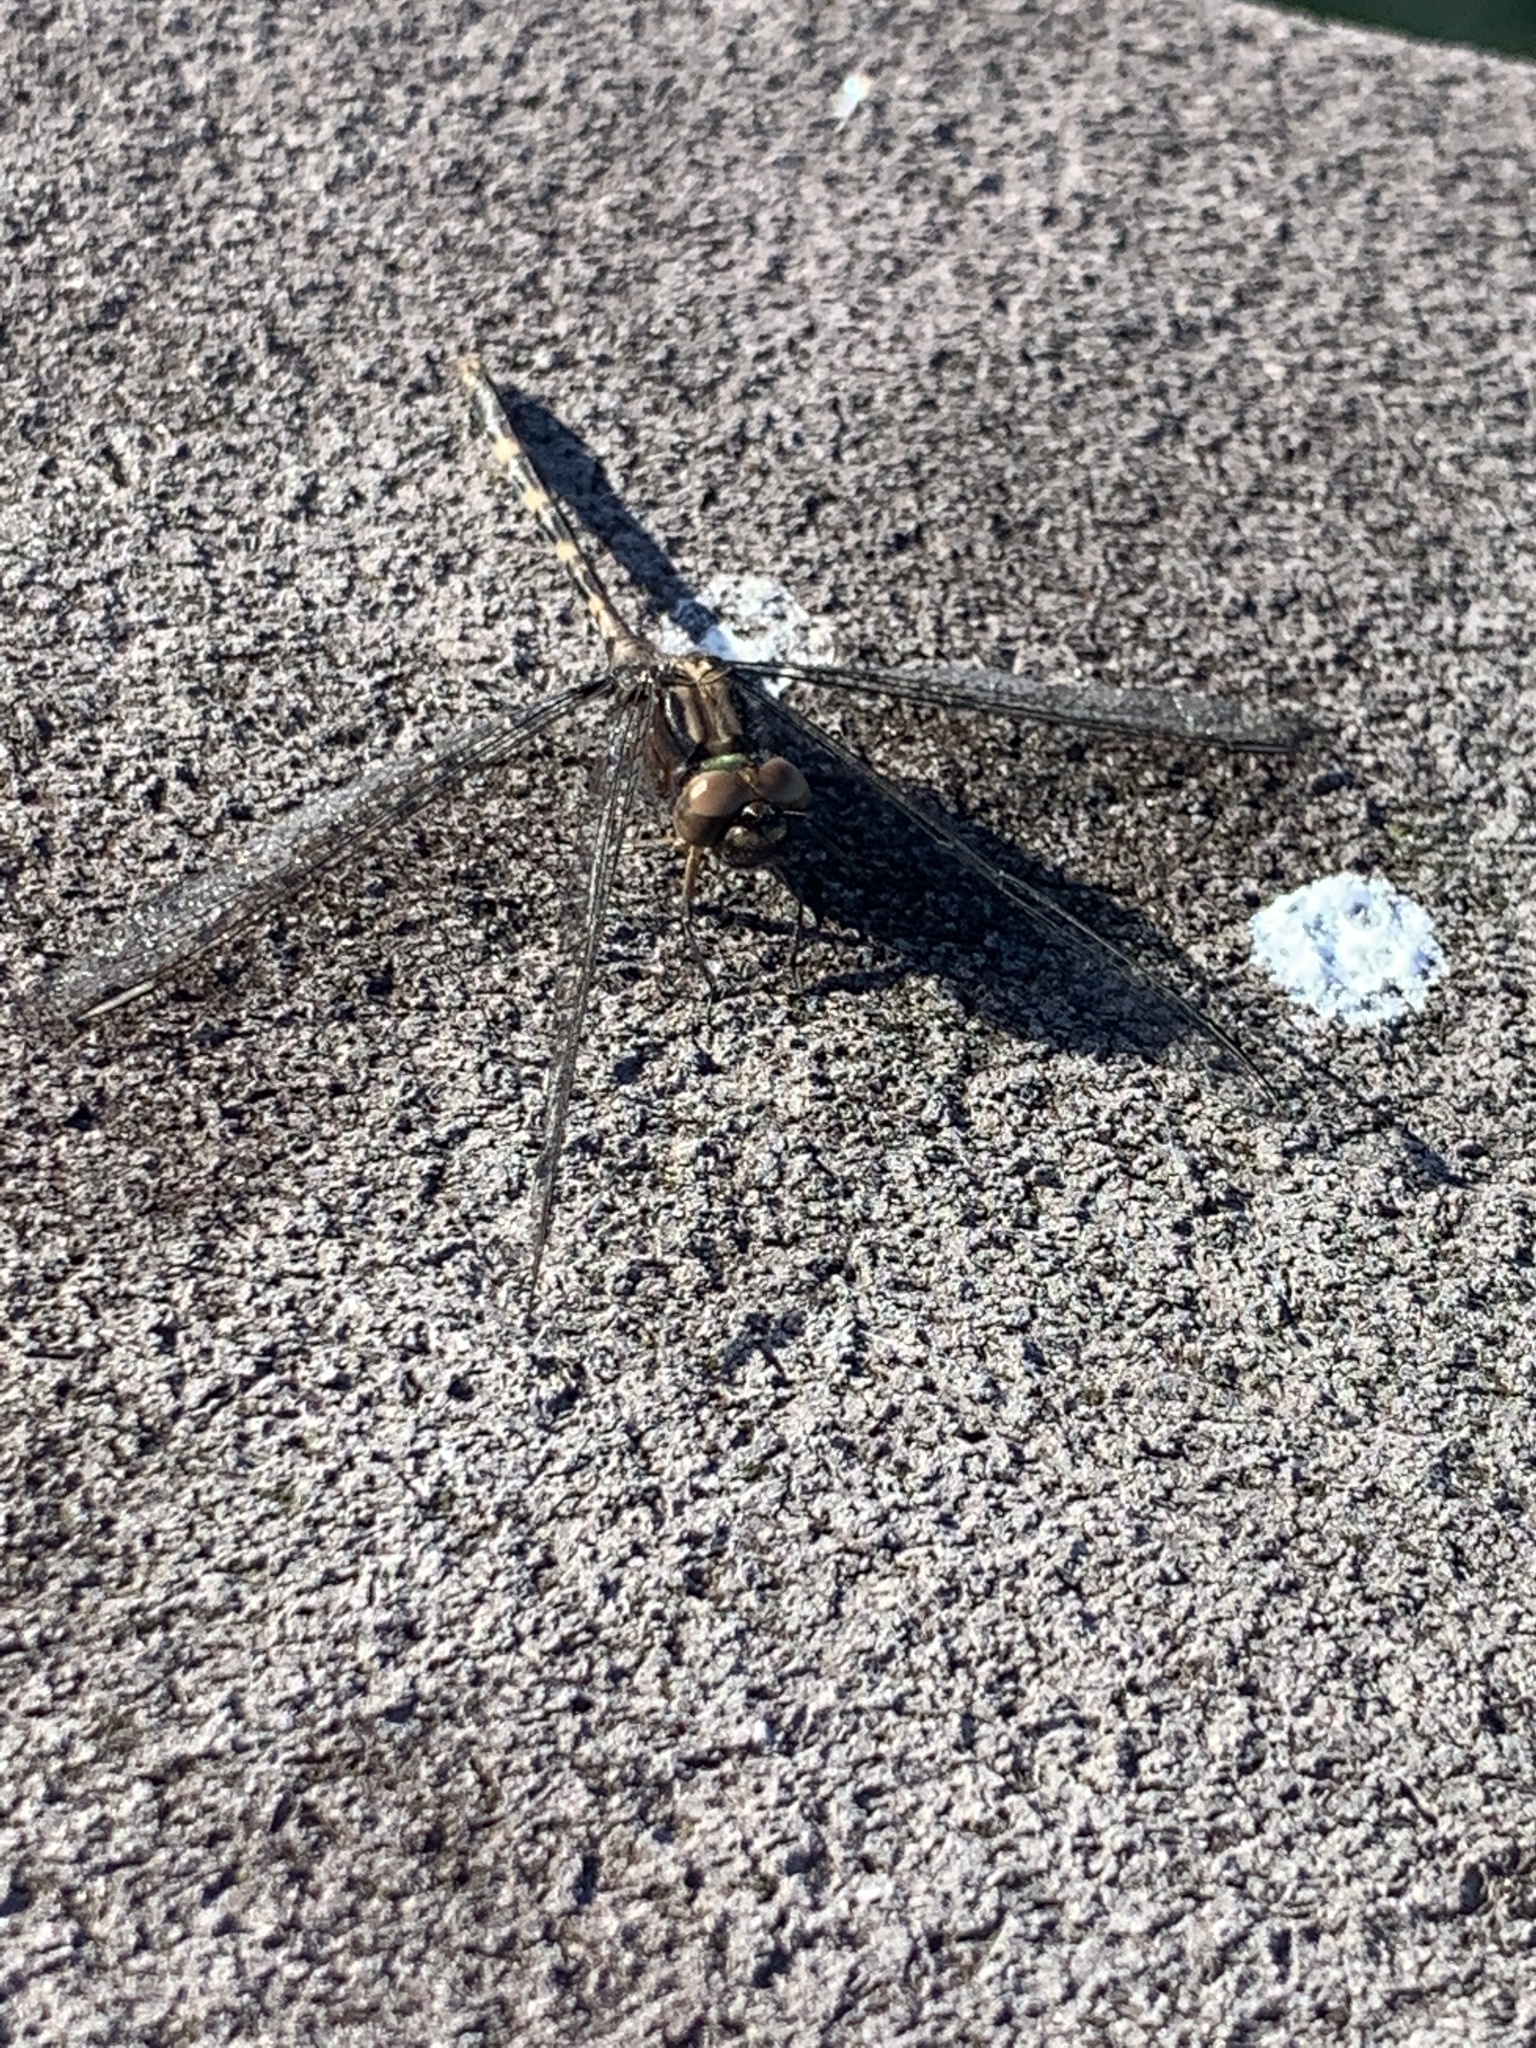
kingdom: Animalia
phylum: Arthropoda
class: Insecta
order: Odonata
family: Libellulidae
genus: Erythemis
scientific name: Erythemis plebeja
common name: Pin-tailed pondhawk
